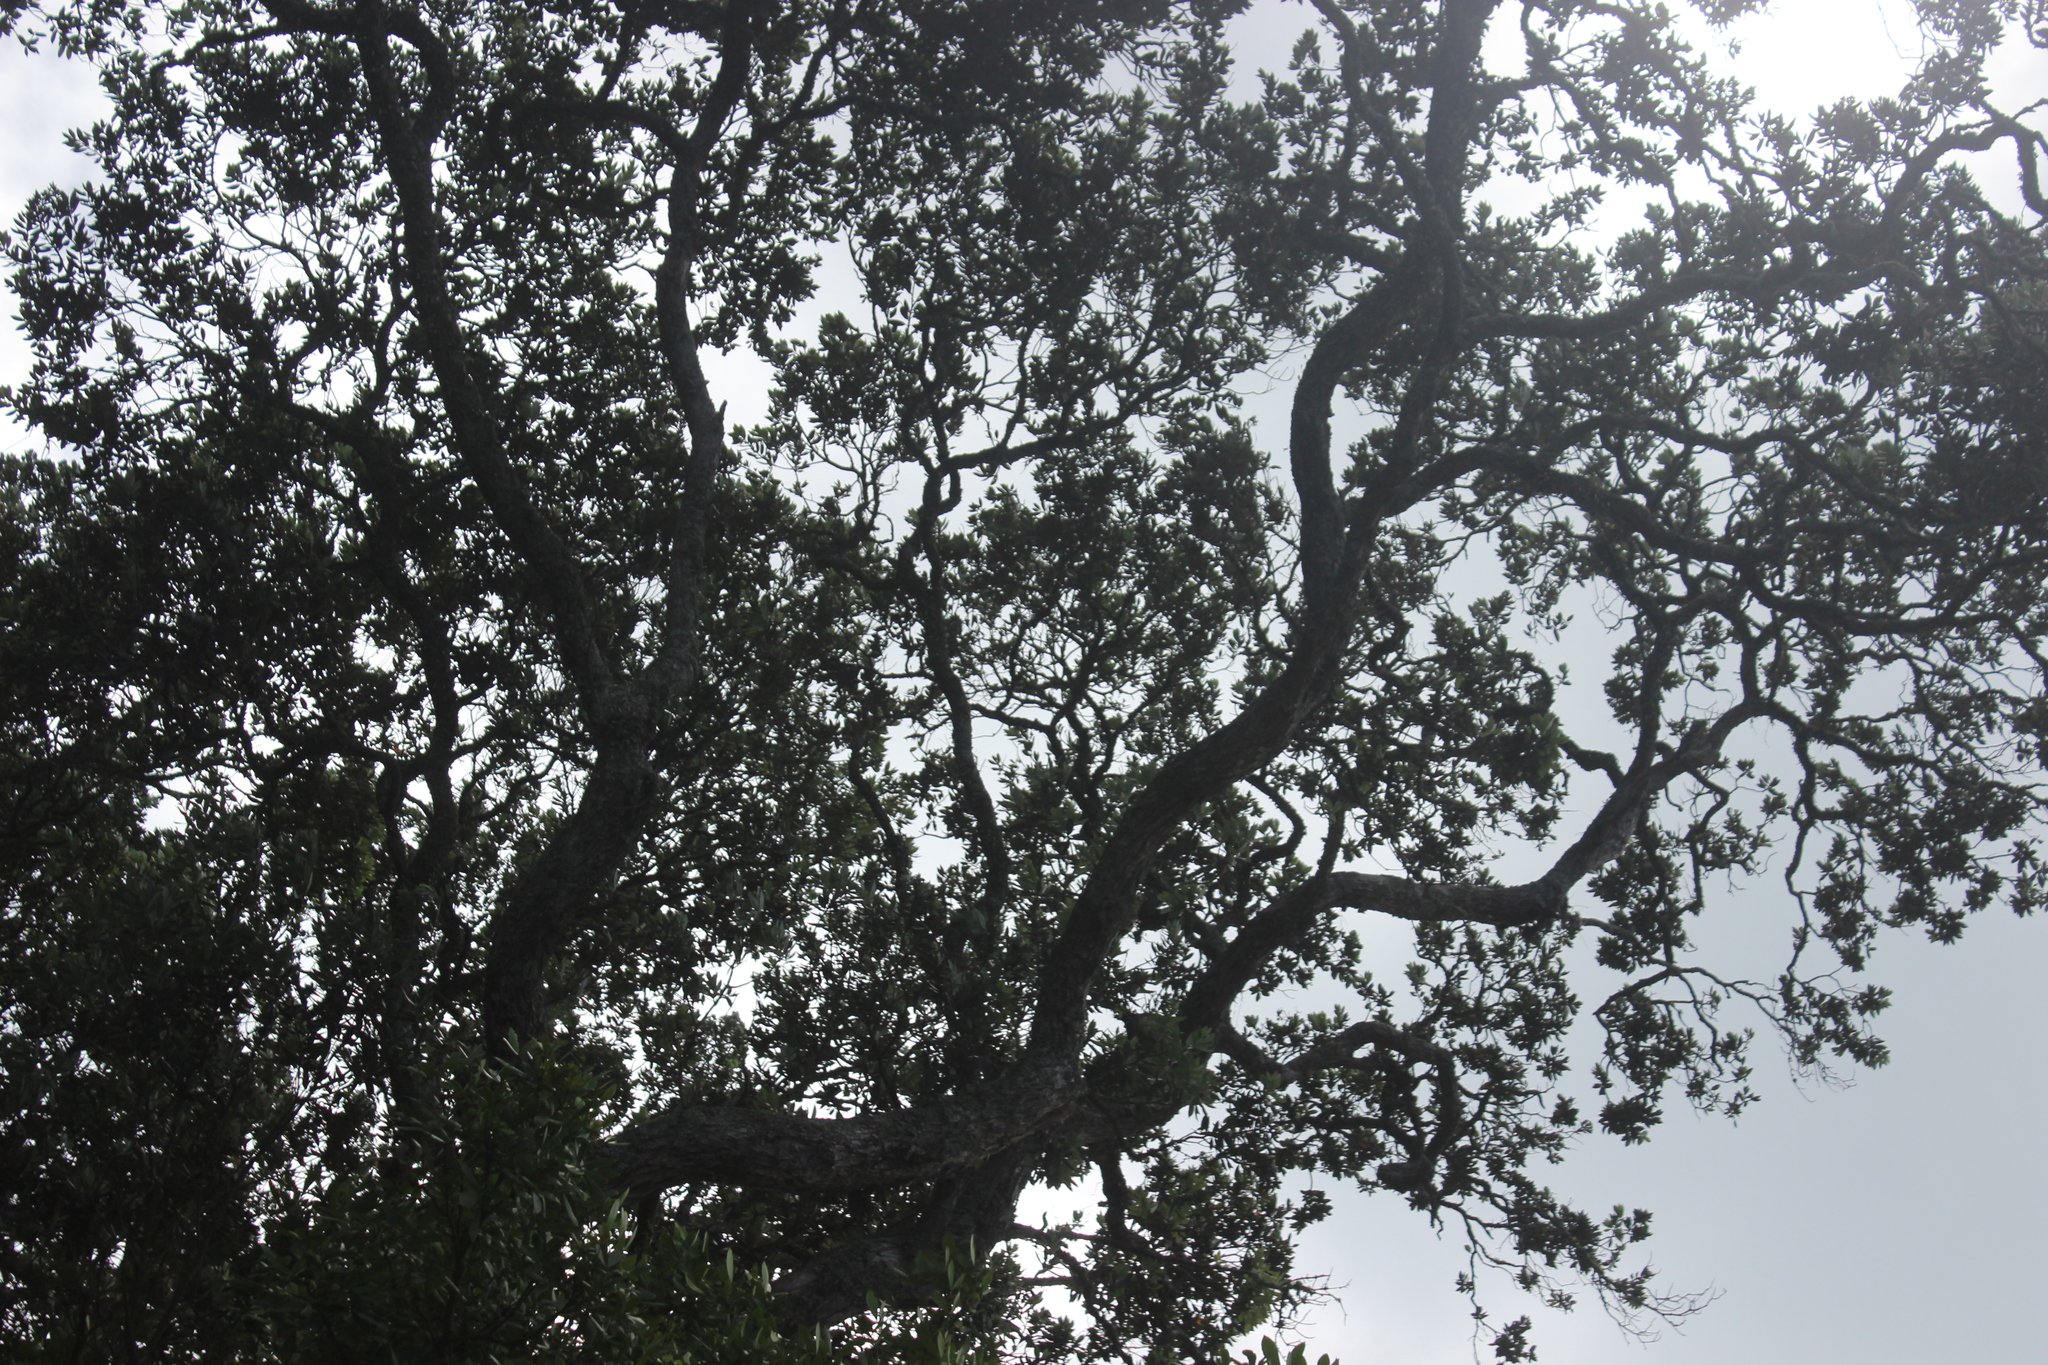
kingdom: Plantae
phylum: Tracheophyta
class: Magnoliopsida
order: Myrtales
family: Myrtaceae
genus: Metrosideros
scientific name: Metrosideros excelsa
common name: New zealand christmastree
